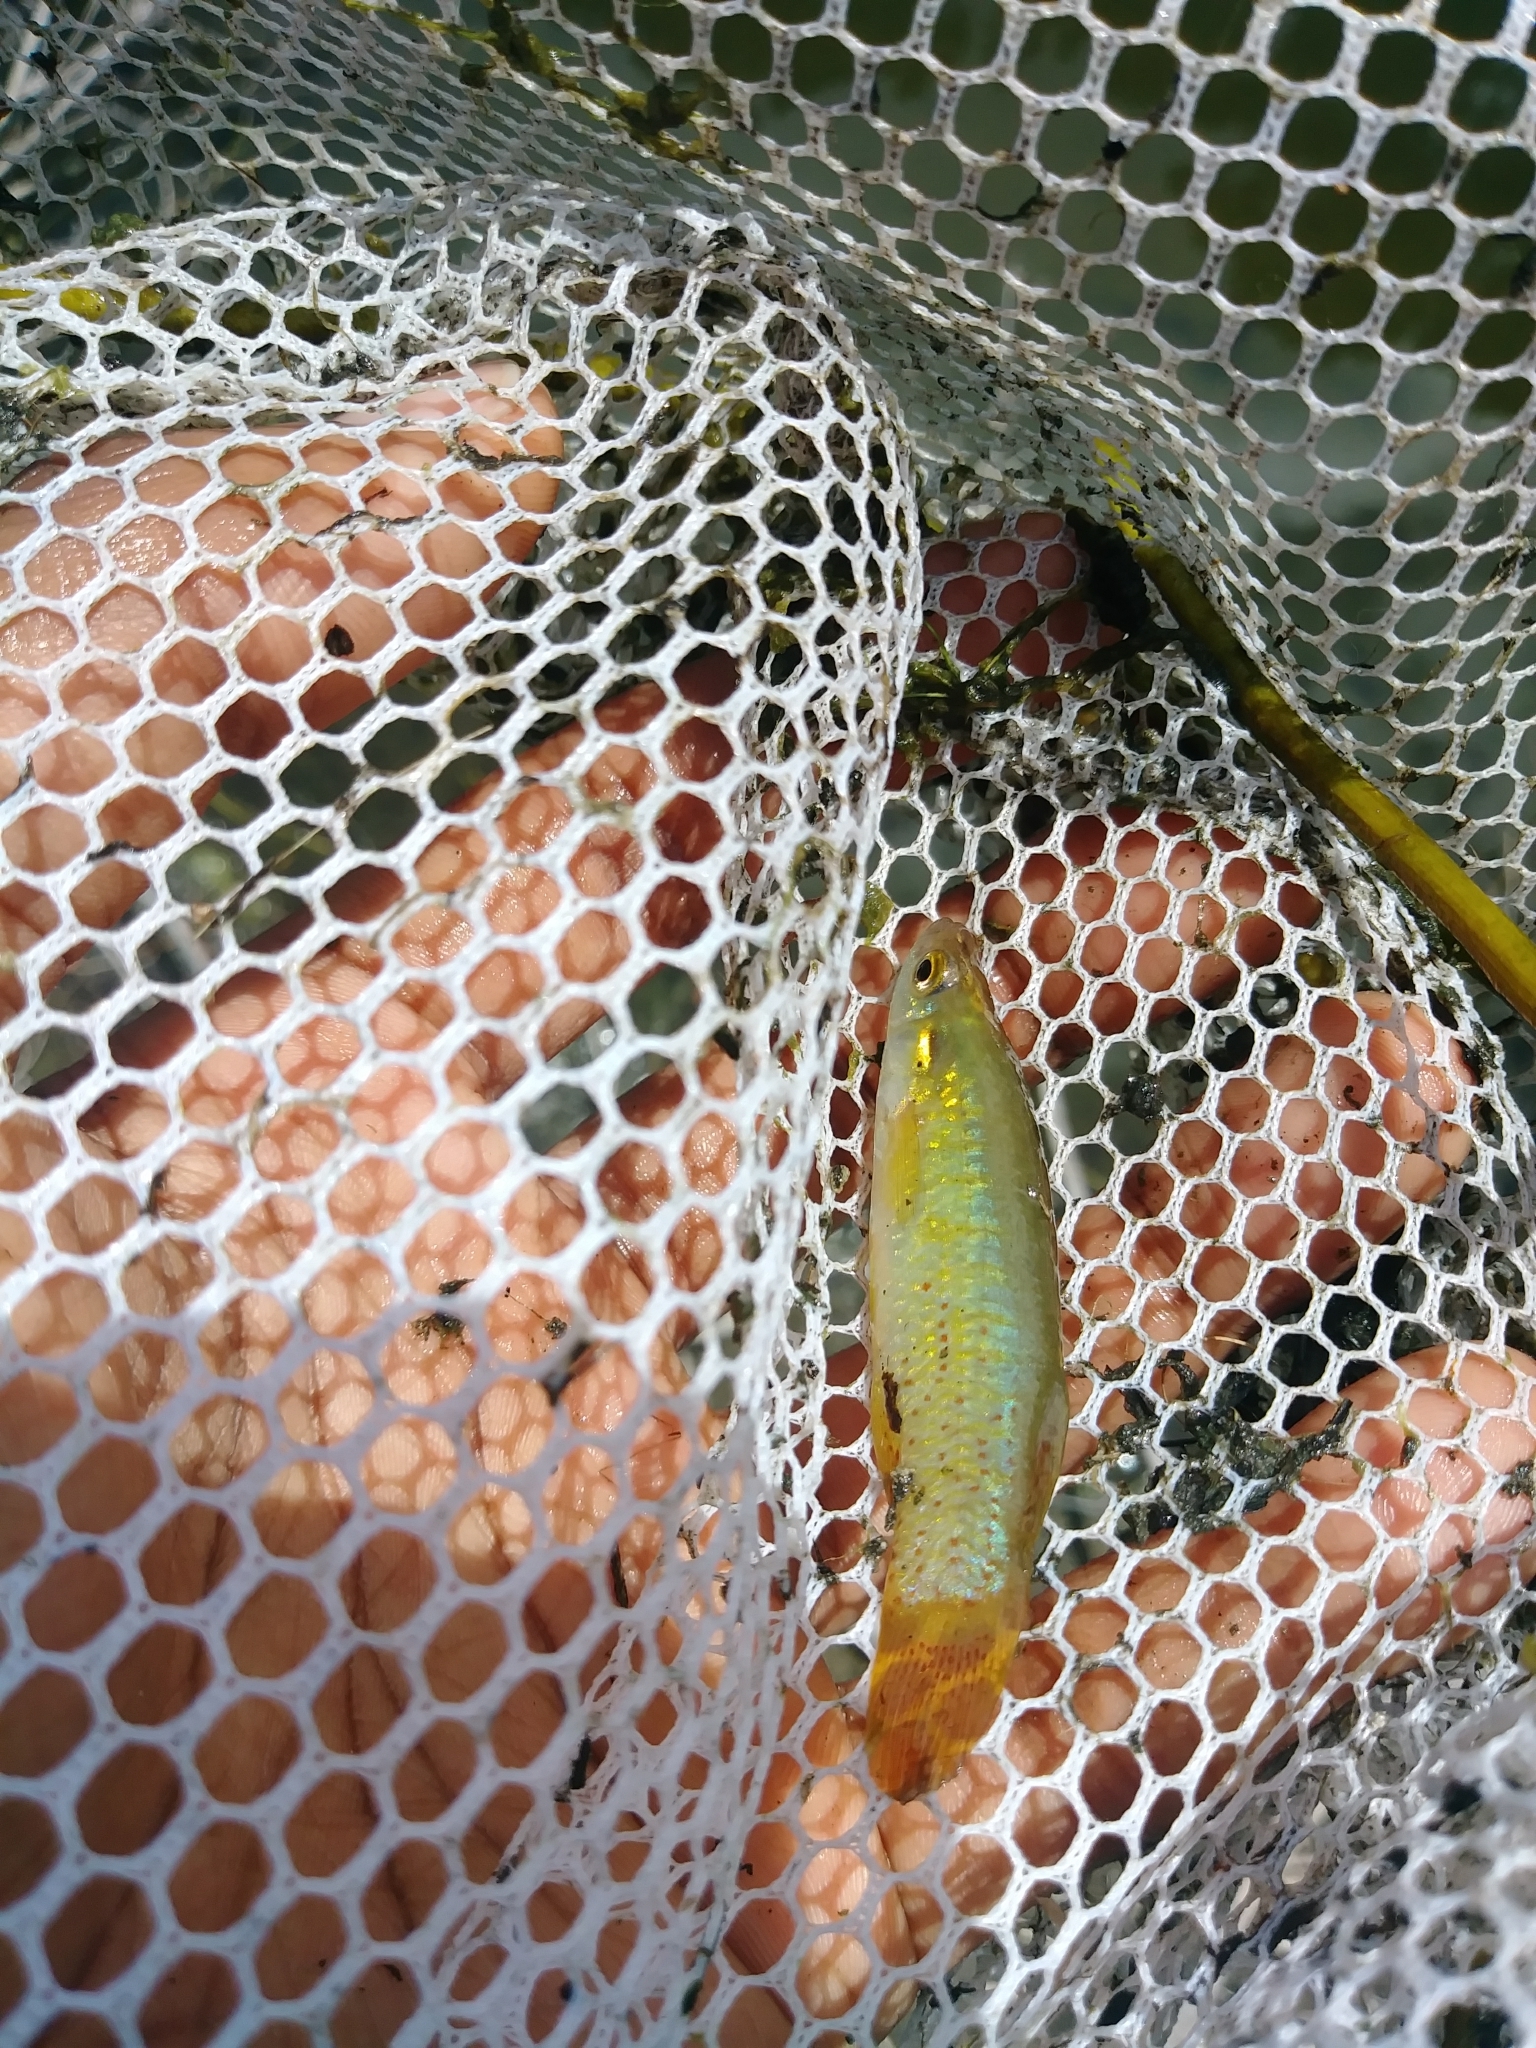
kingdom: Animalia
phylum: Chordata
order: Cyprinodontiformes
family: Fundulidae
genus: Fundulus
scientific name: Fundulus chrysotus
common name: Golden topminnow
